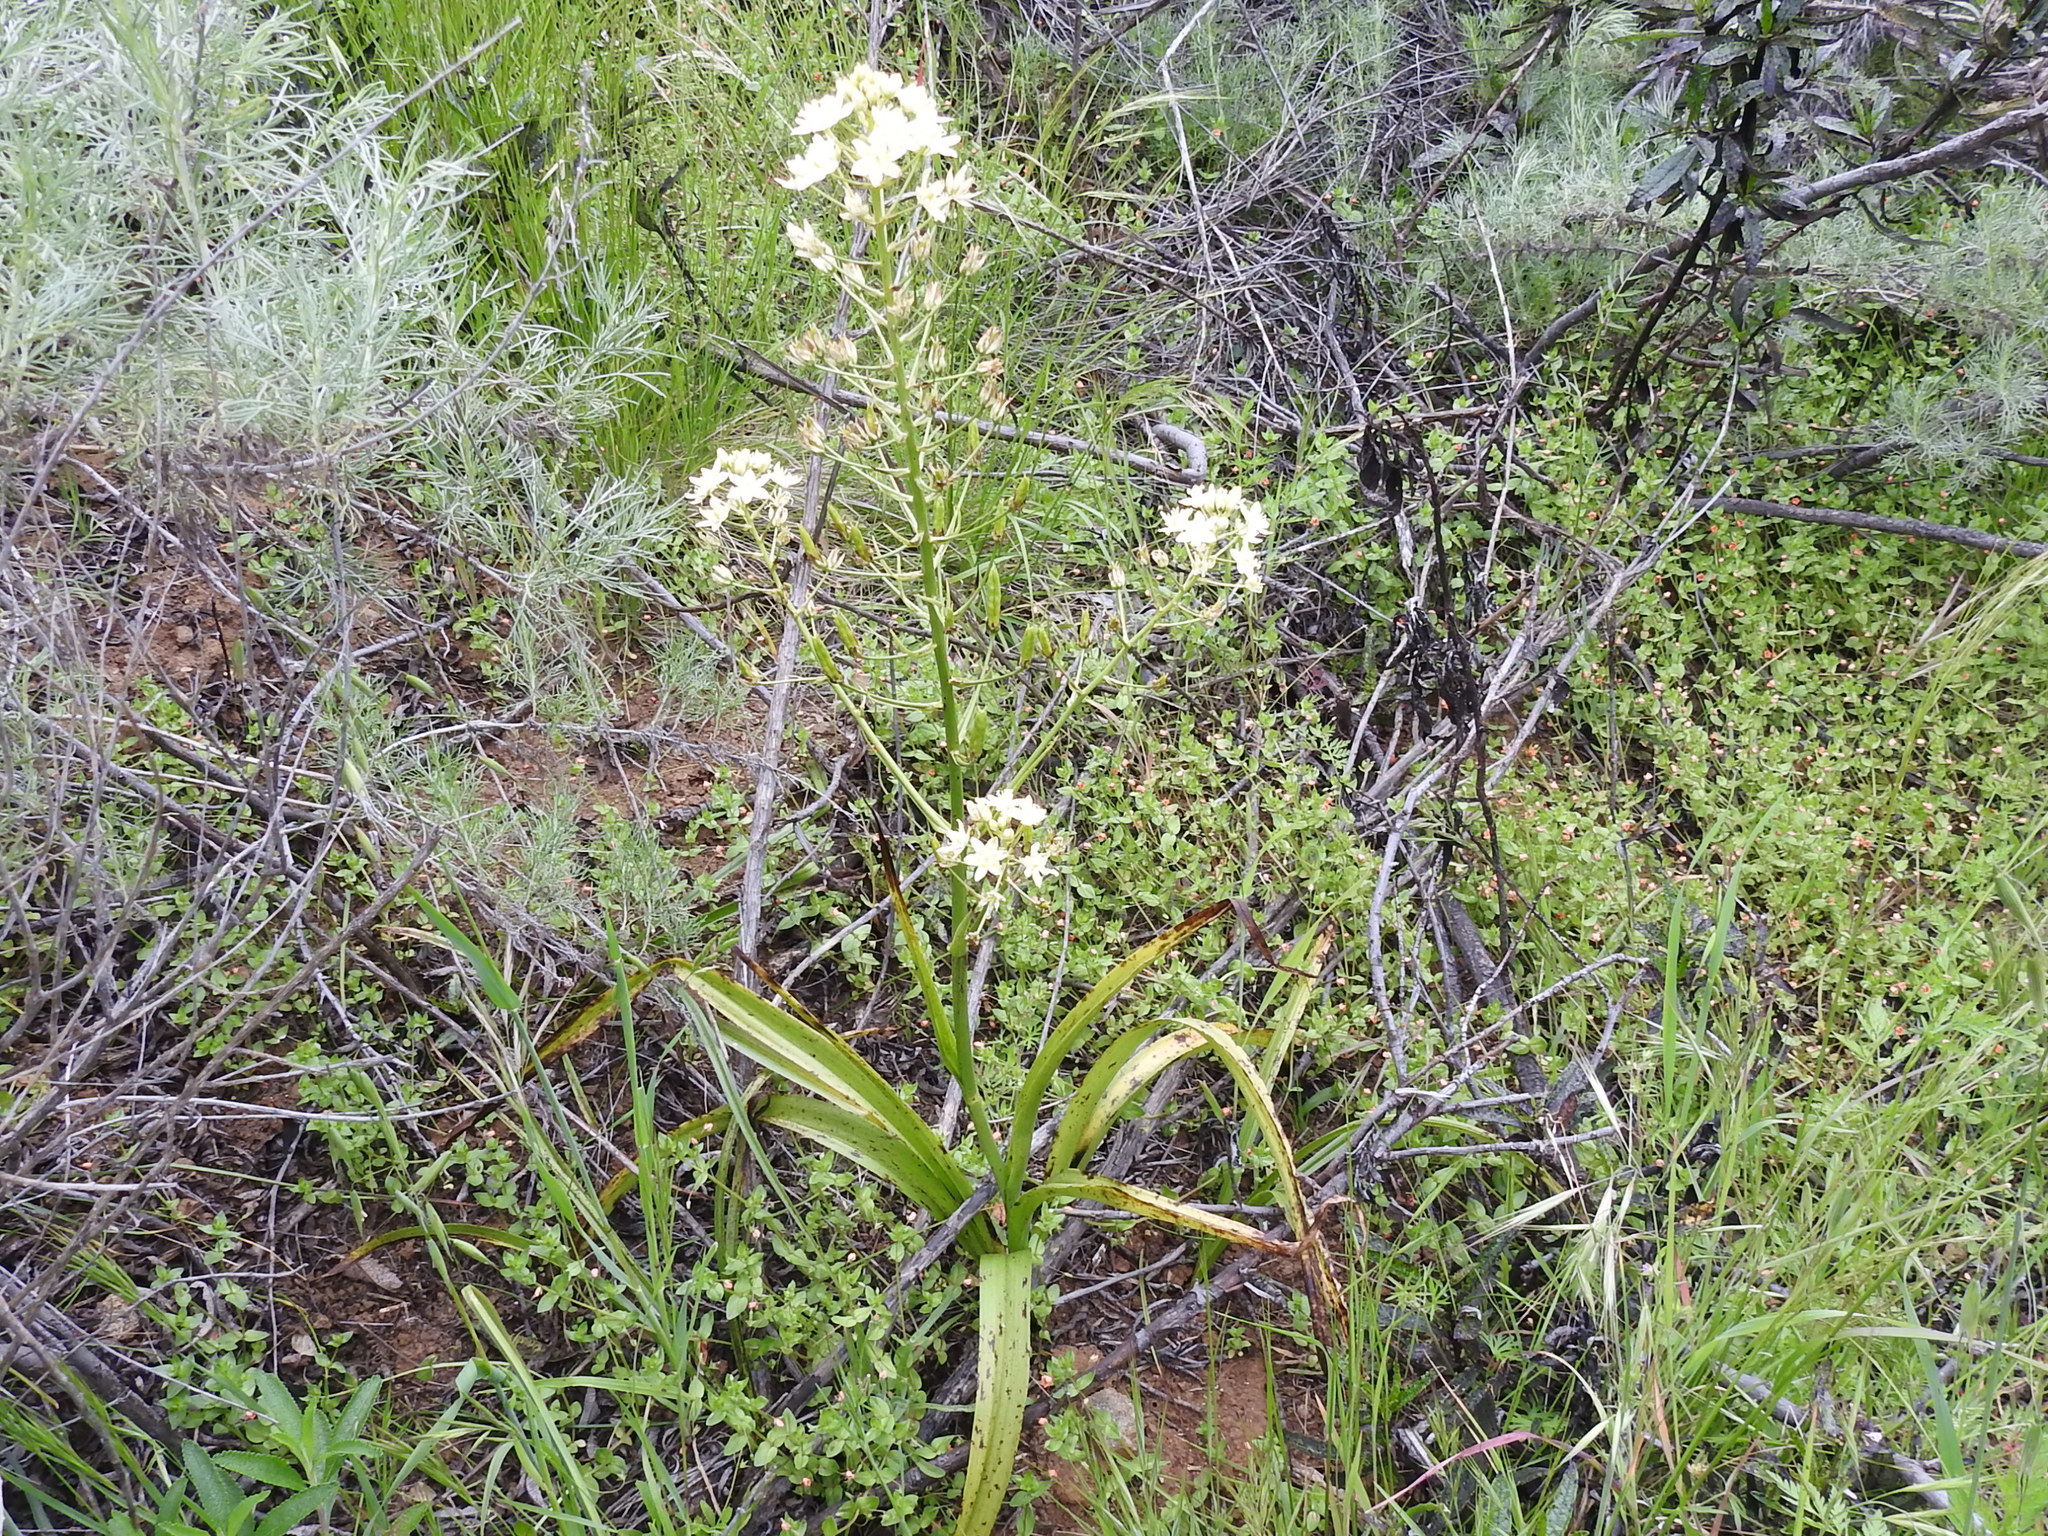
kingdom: Plantae
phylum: Tracheophyta
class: Liliopsida
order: Liliales
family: Melanthiaceae
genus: Toxicoscordion
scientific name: Toxicoscordion fremontii
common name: Fremont's death camas
